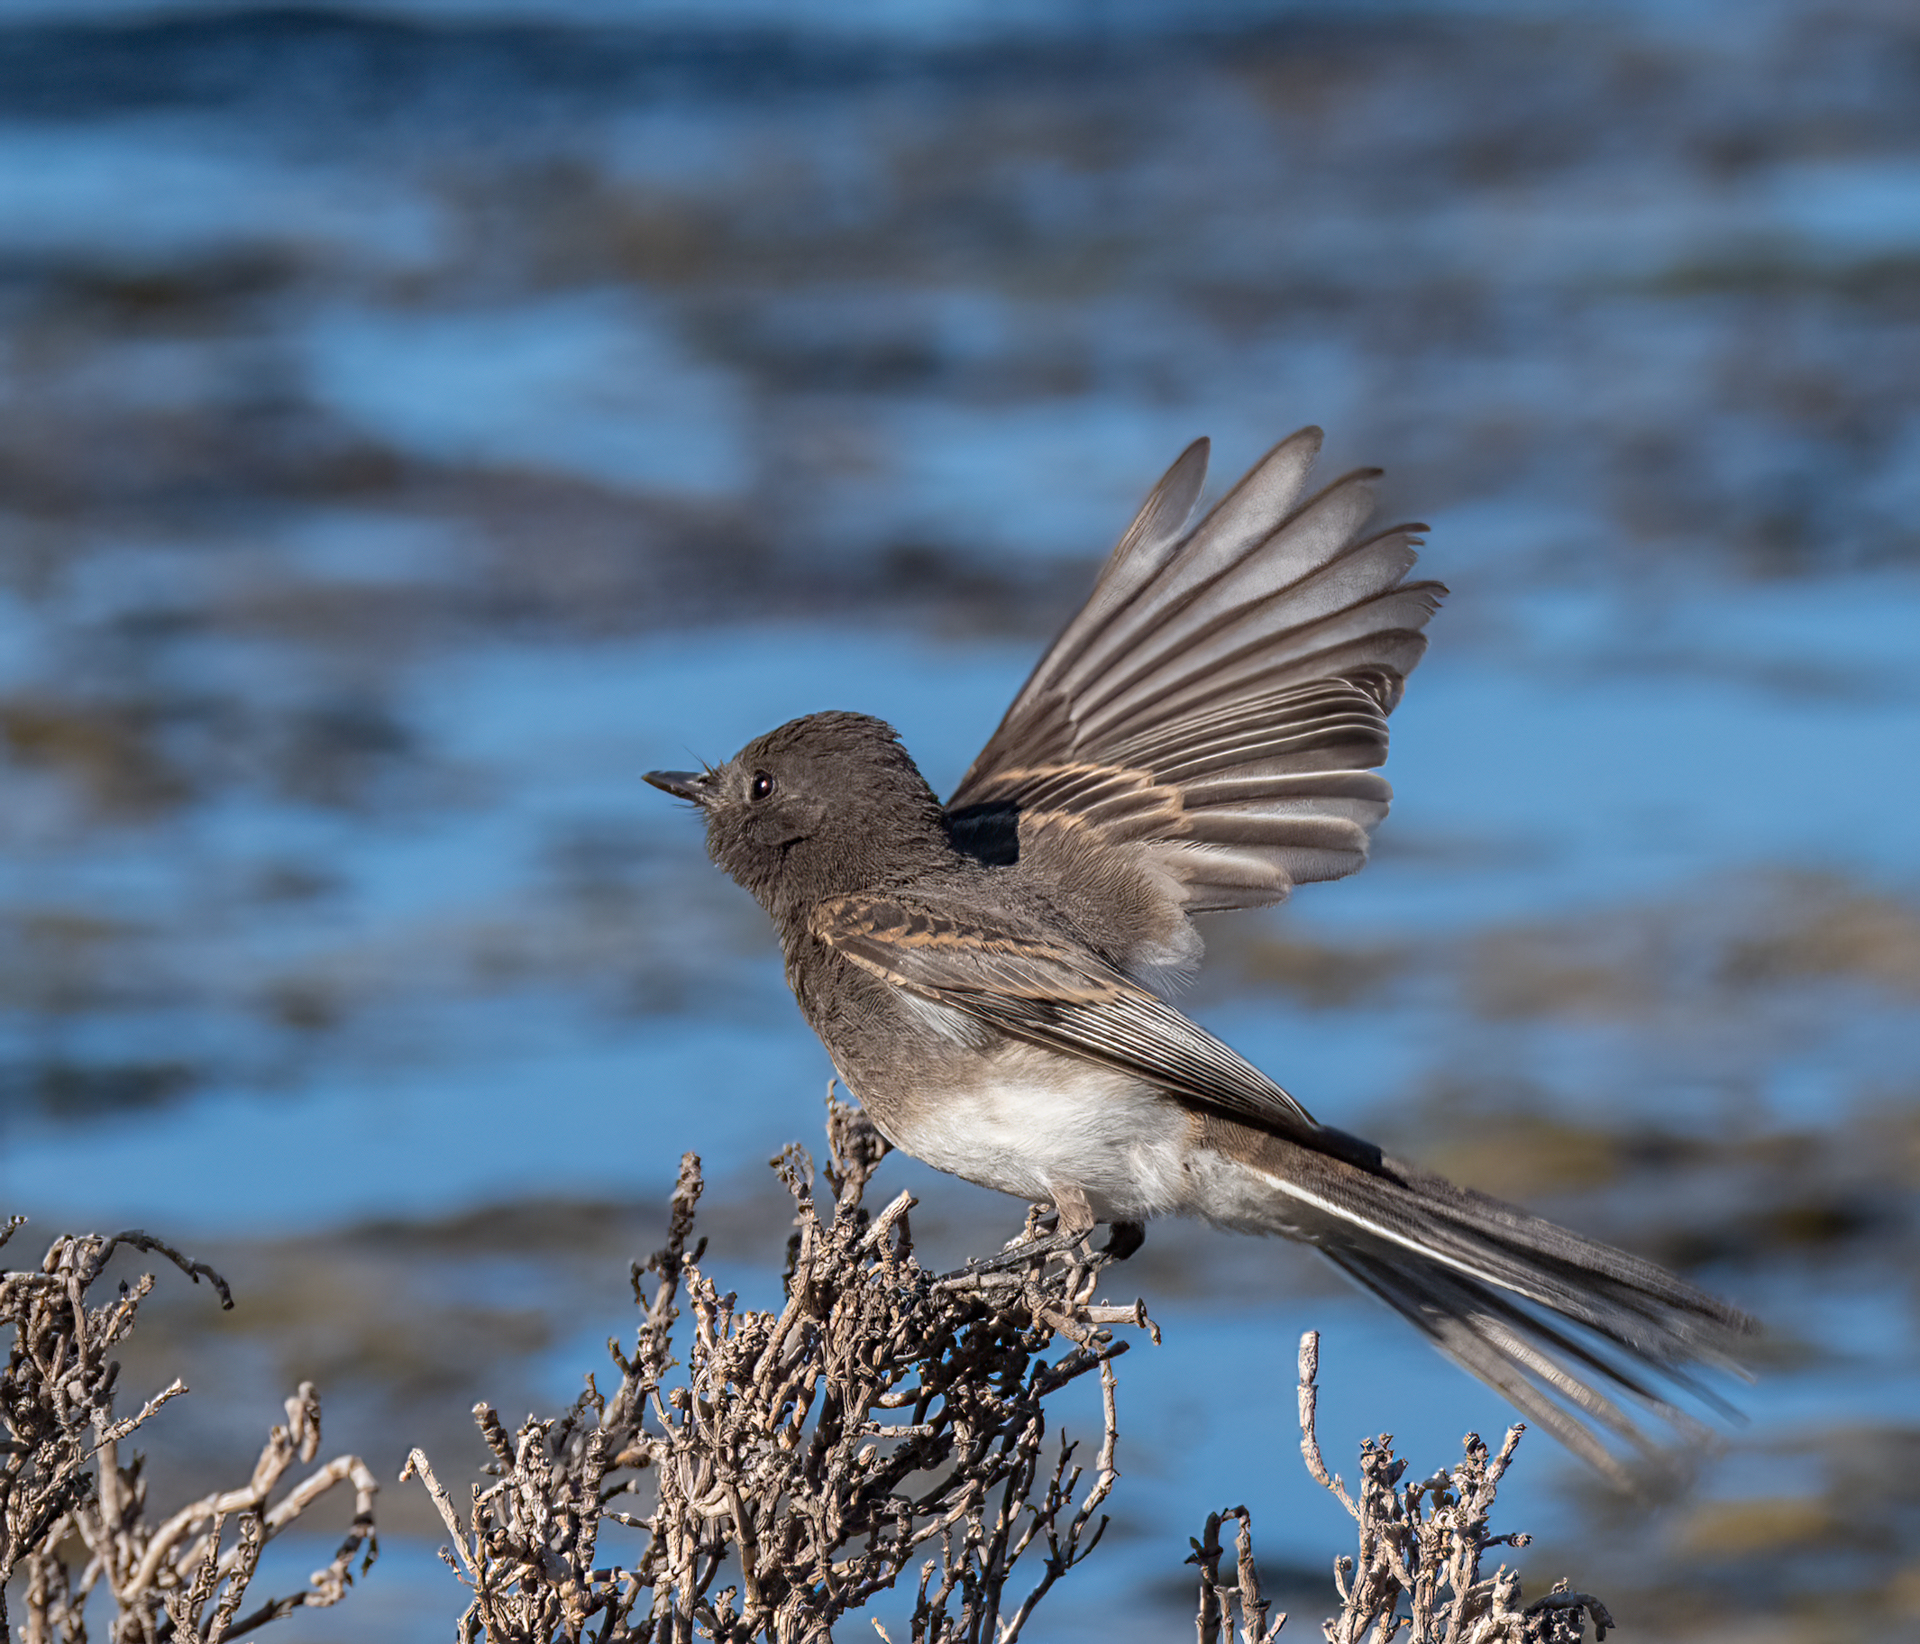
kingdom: Animalia
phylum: Chordata
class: Aves
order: Passeriformes
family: Tyrannidae
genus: Sayornis
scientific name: Sayornis nigricans
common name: Black phoebe
